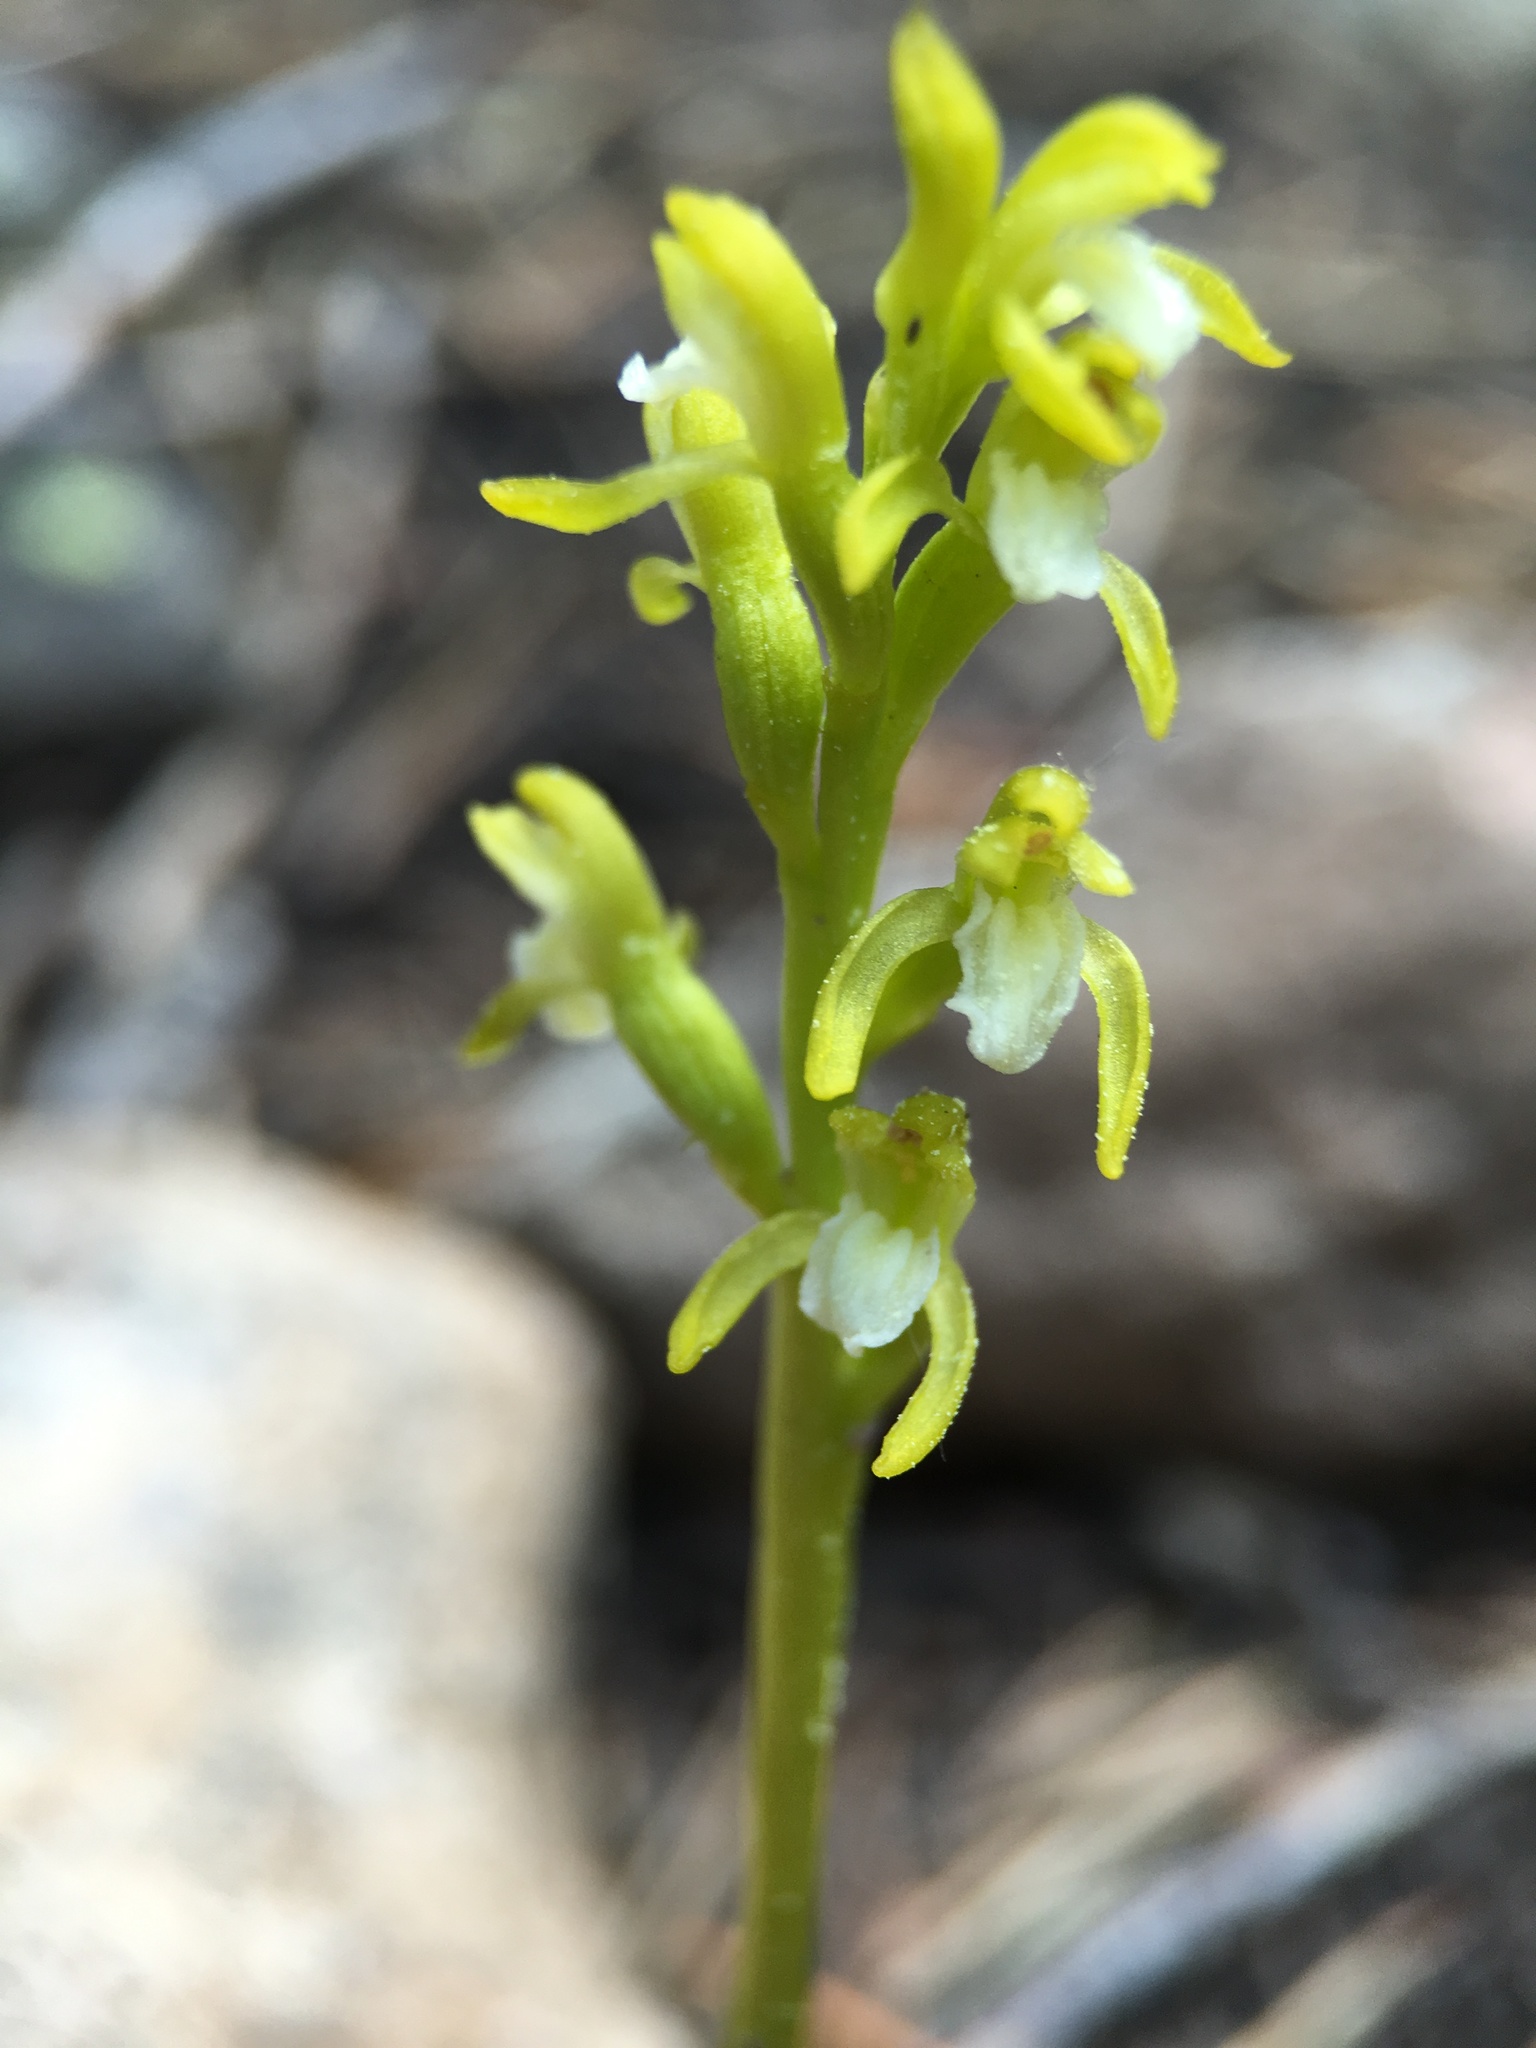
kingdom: Plantae
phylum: Tracheophyta
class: Liliopsida
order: Asparagales
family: Orchidaceae
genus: Corallorhiza
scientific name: Corallorhiza trifida
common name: Yellow coralroot
